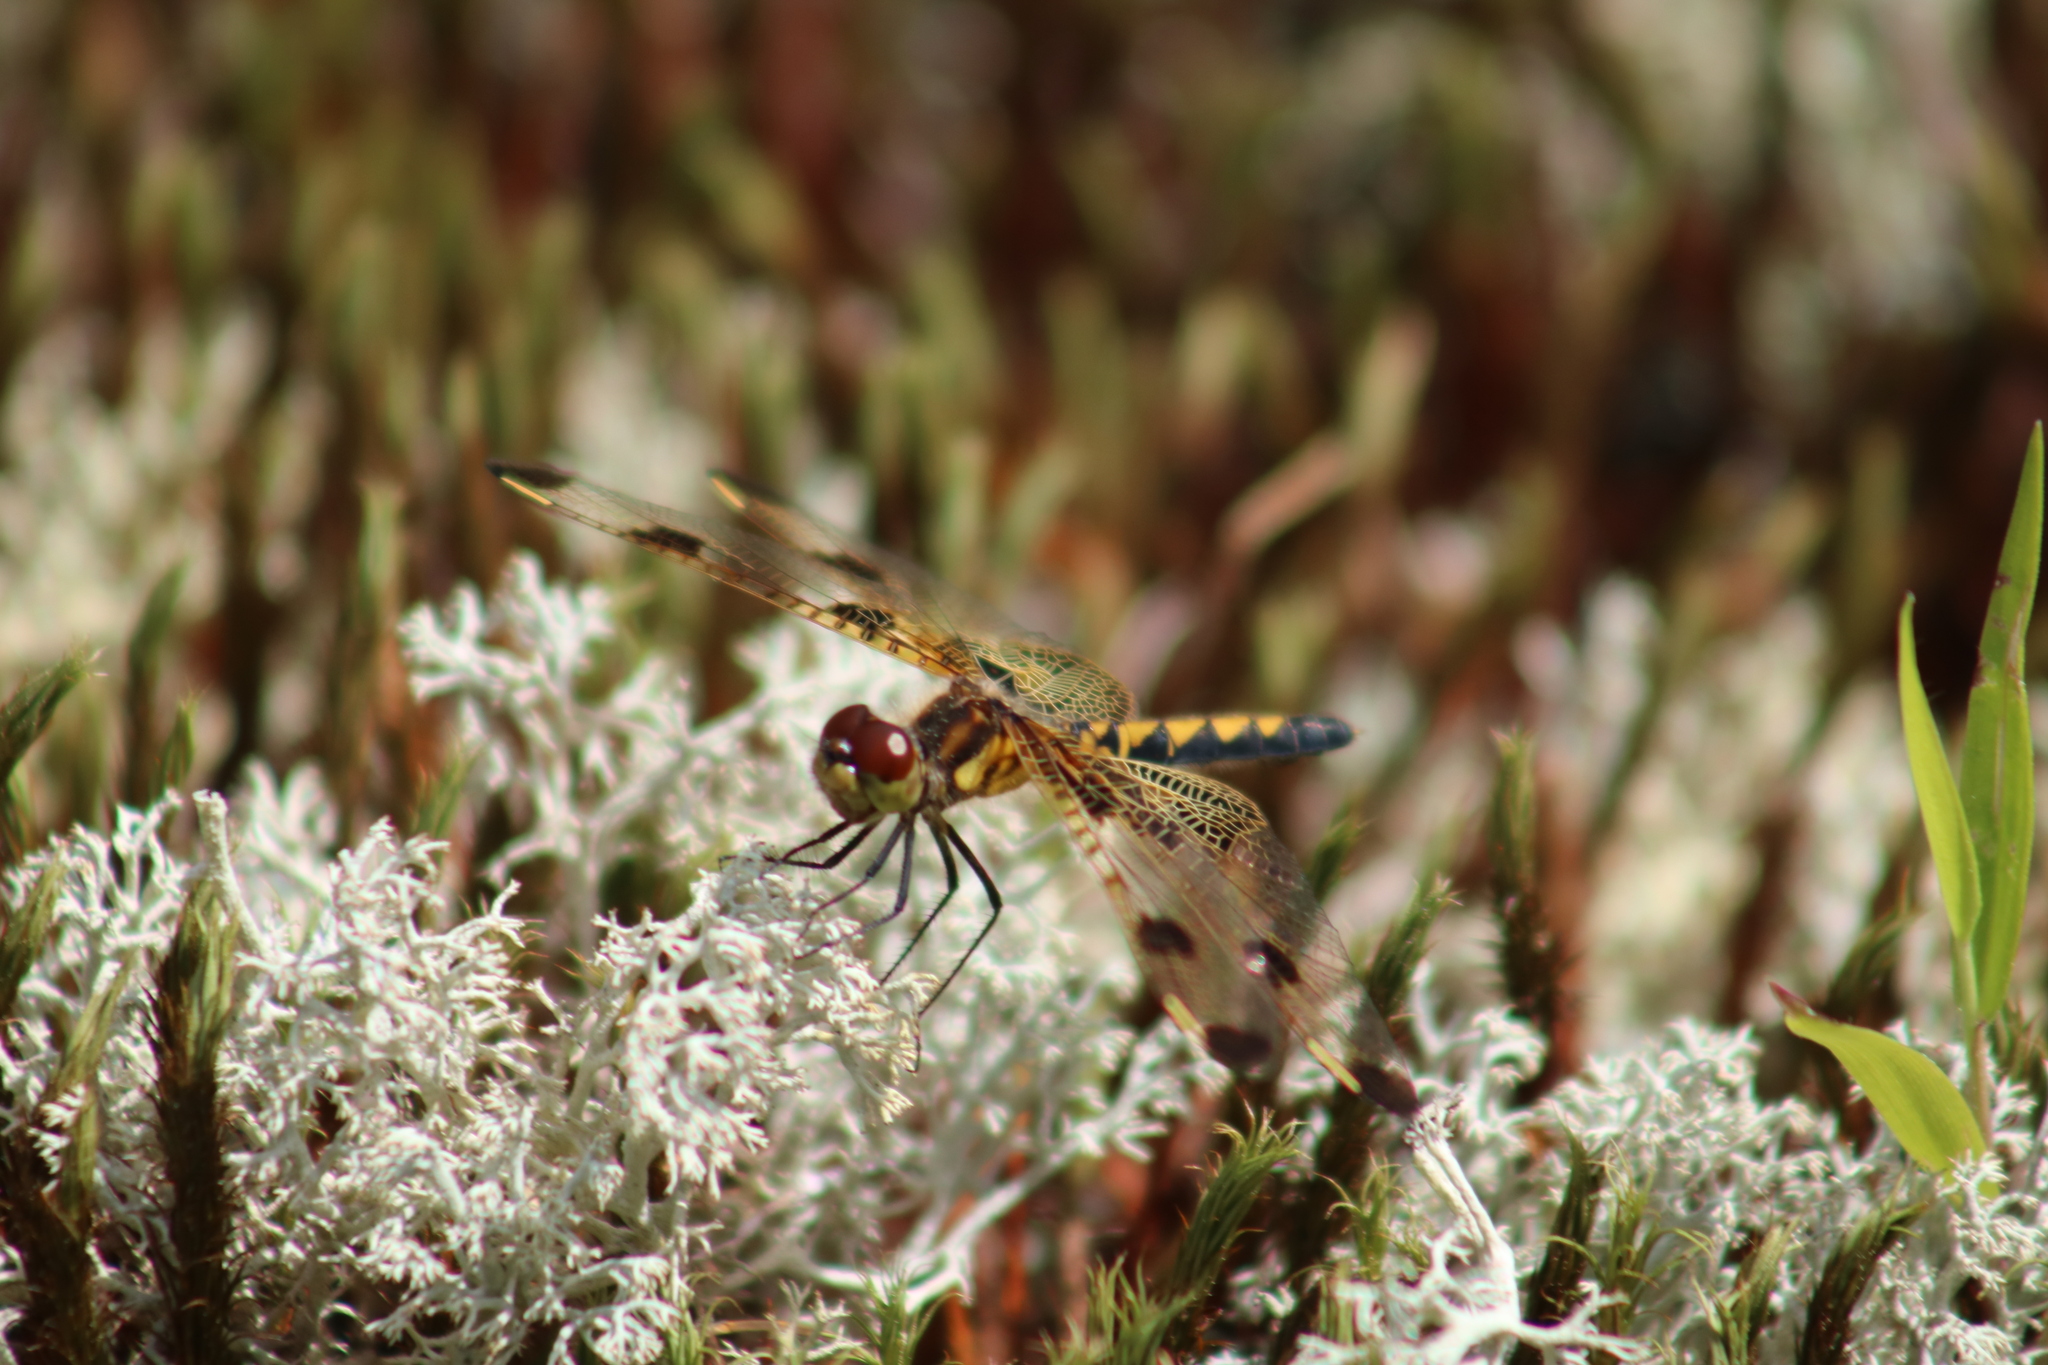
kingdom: Animalia
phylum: Arthropoda
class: Insecta
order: Odonata
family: Libellulidae
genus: Celithemis
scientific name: Celithemis elisa
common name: Calico pennant
